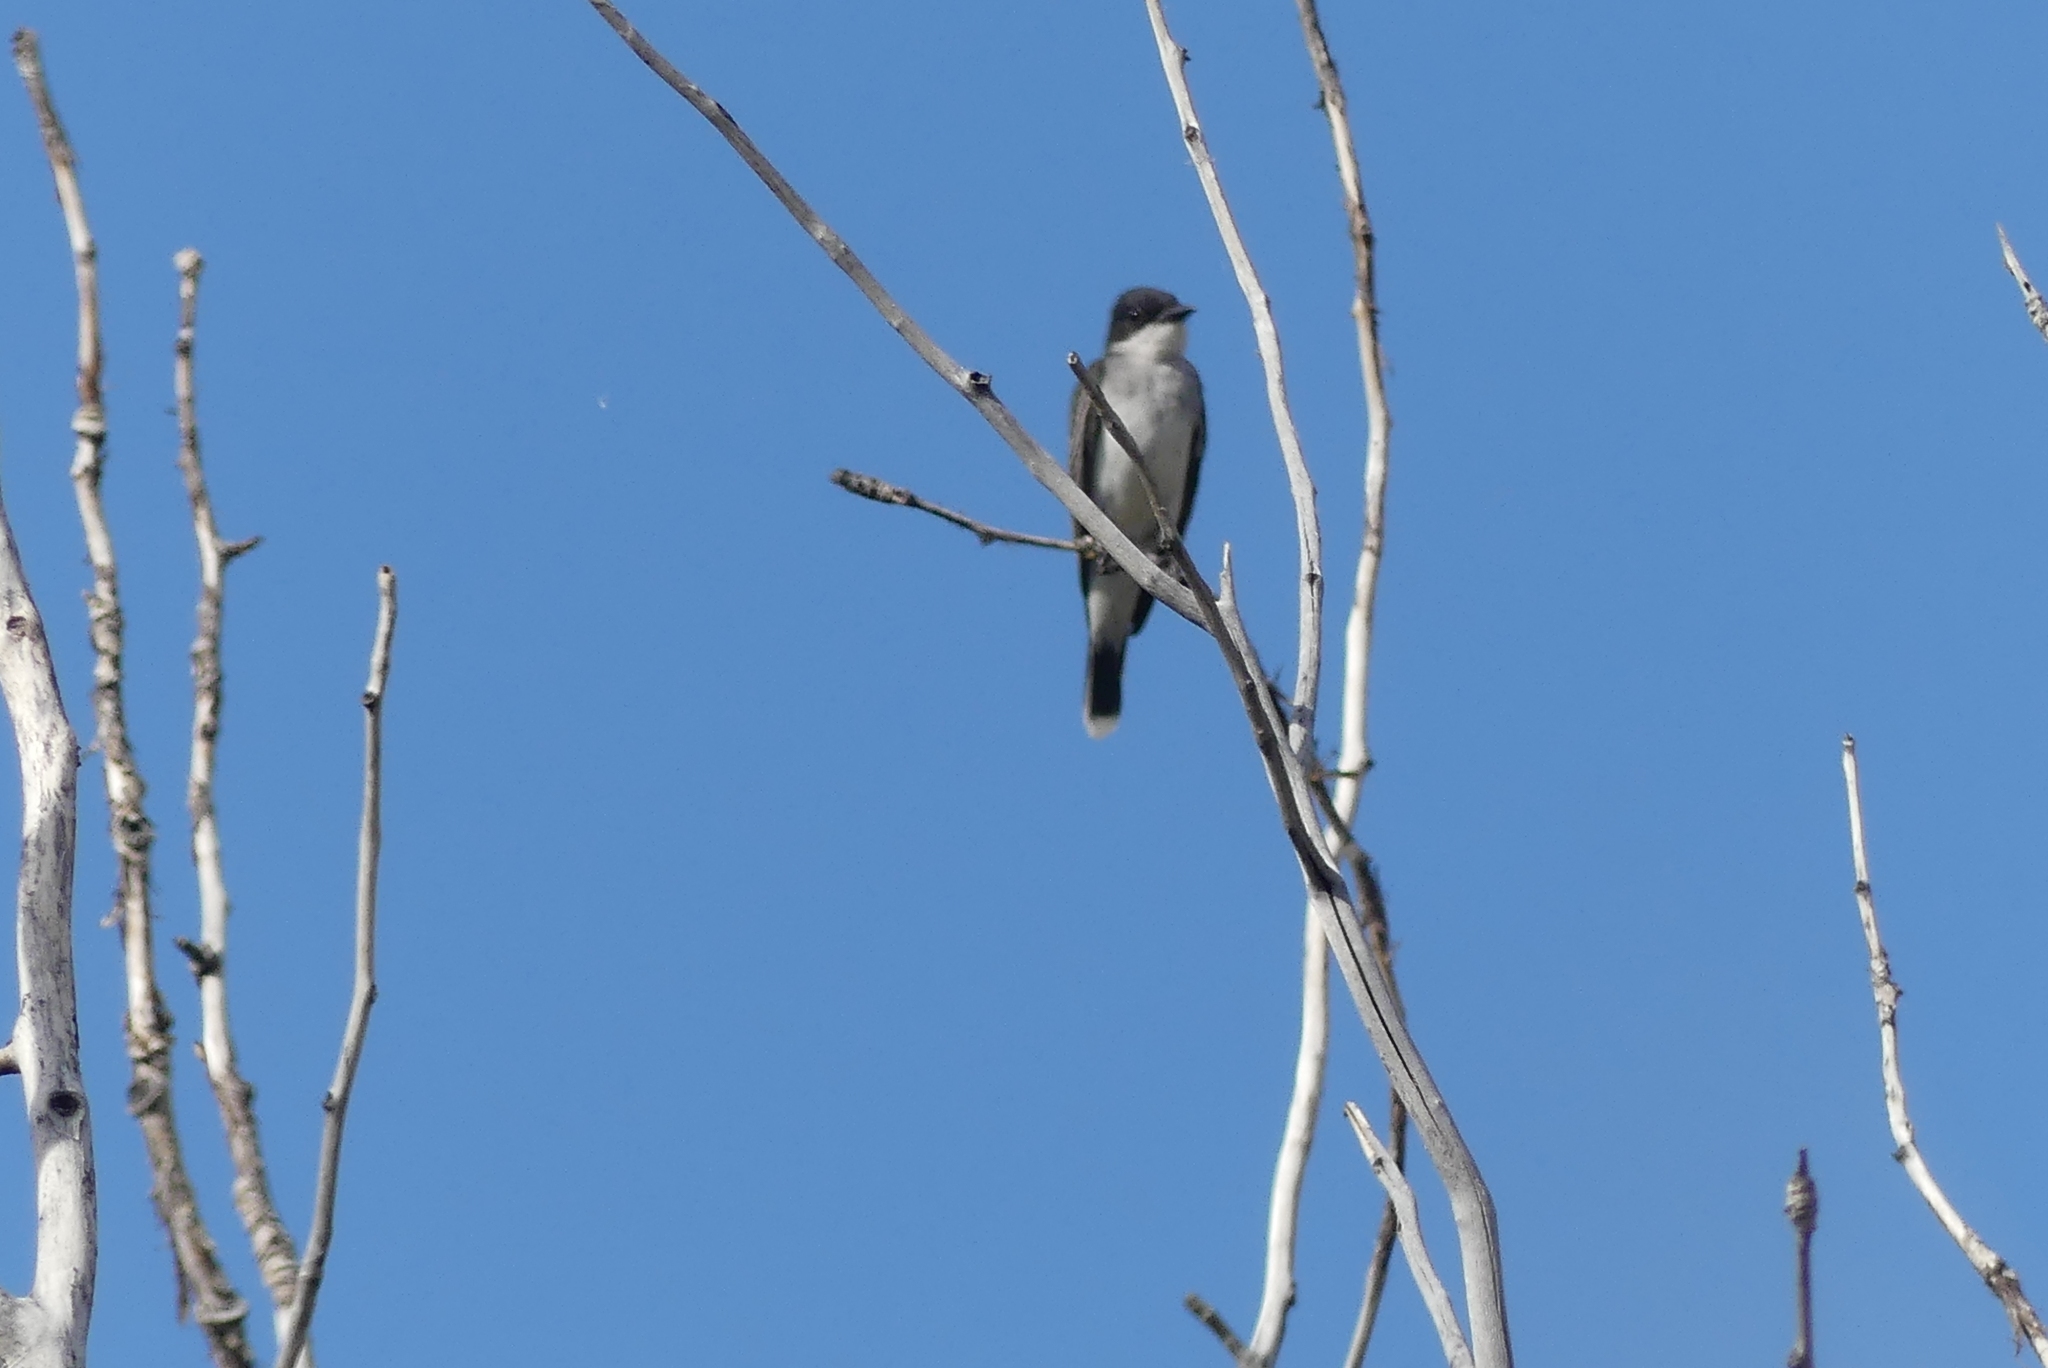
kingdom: Animalia
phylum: Chordata
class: Aves
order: Passeriformes
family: Tyrannidae
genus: Tyrannus
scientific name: Tyrannus tyrannus
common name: Eastern kingbird
